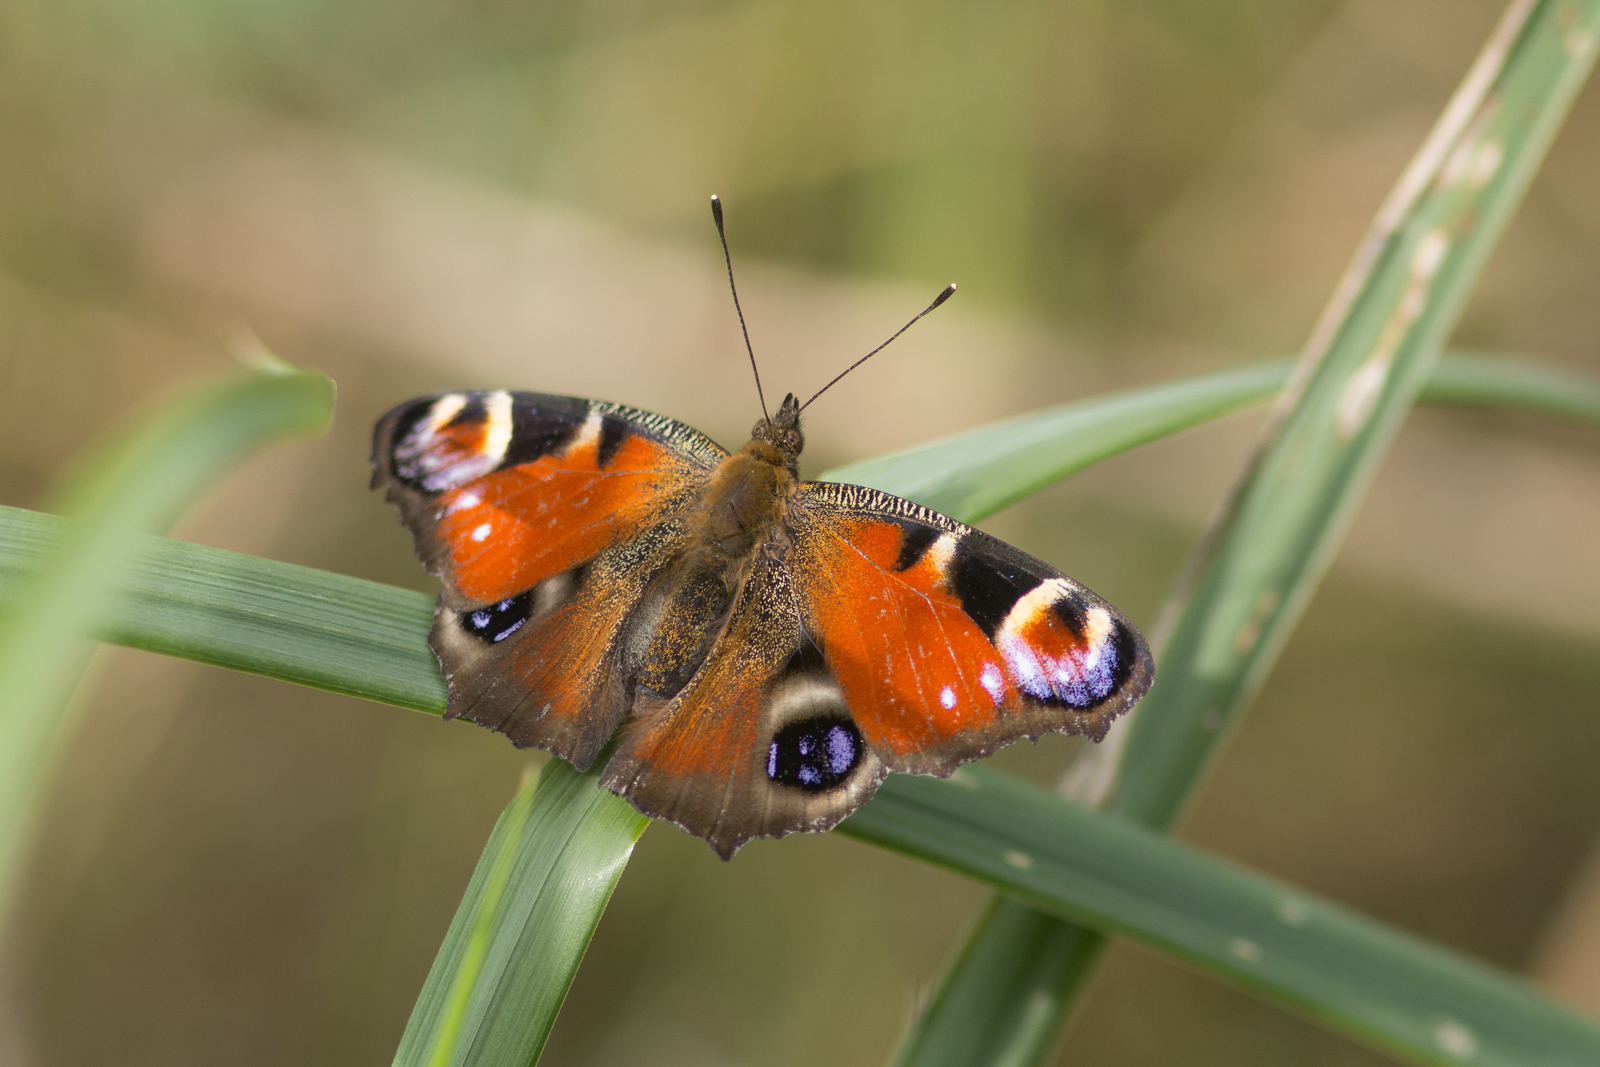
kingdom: Animalia
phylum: Arthropoda
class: Insecta
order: Lepidoptera
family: Nymphalidae
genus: Aglais
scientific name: Aglais io
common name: Peacock
